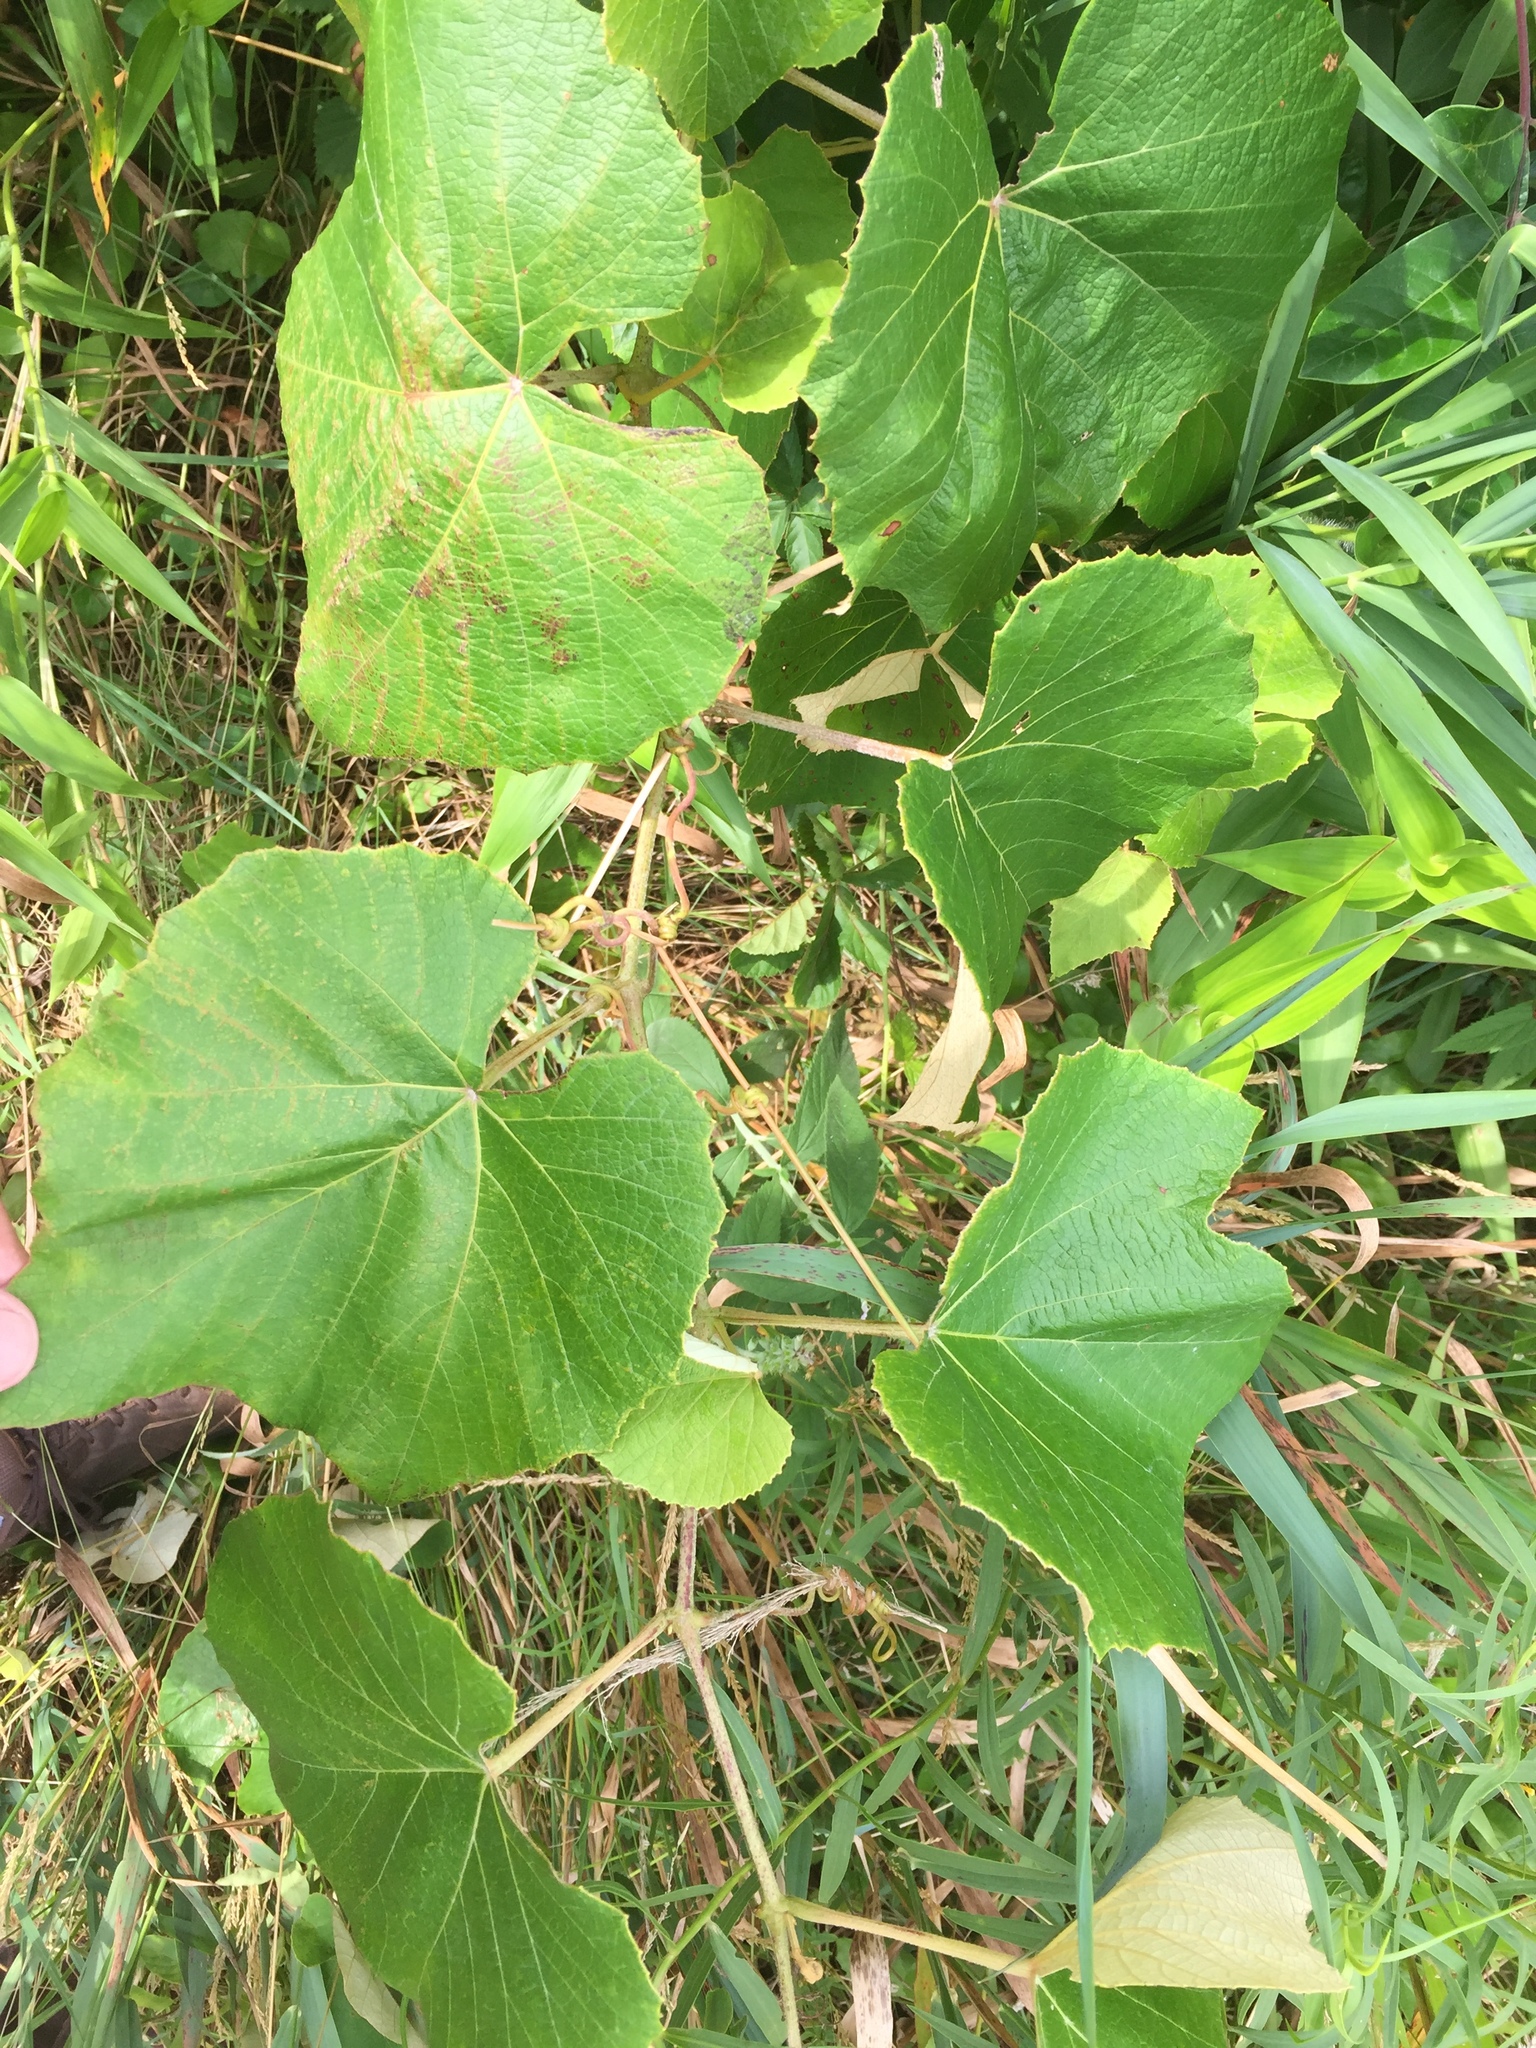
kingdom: Plantae
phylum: Tracheophyta
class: Magnoliopsida
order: Vitales
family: Vitaceae
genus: Vitis
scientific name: Vitis aestivalis
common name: Pigeon grape
